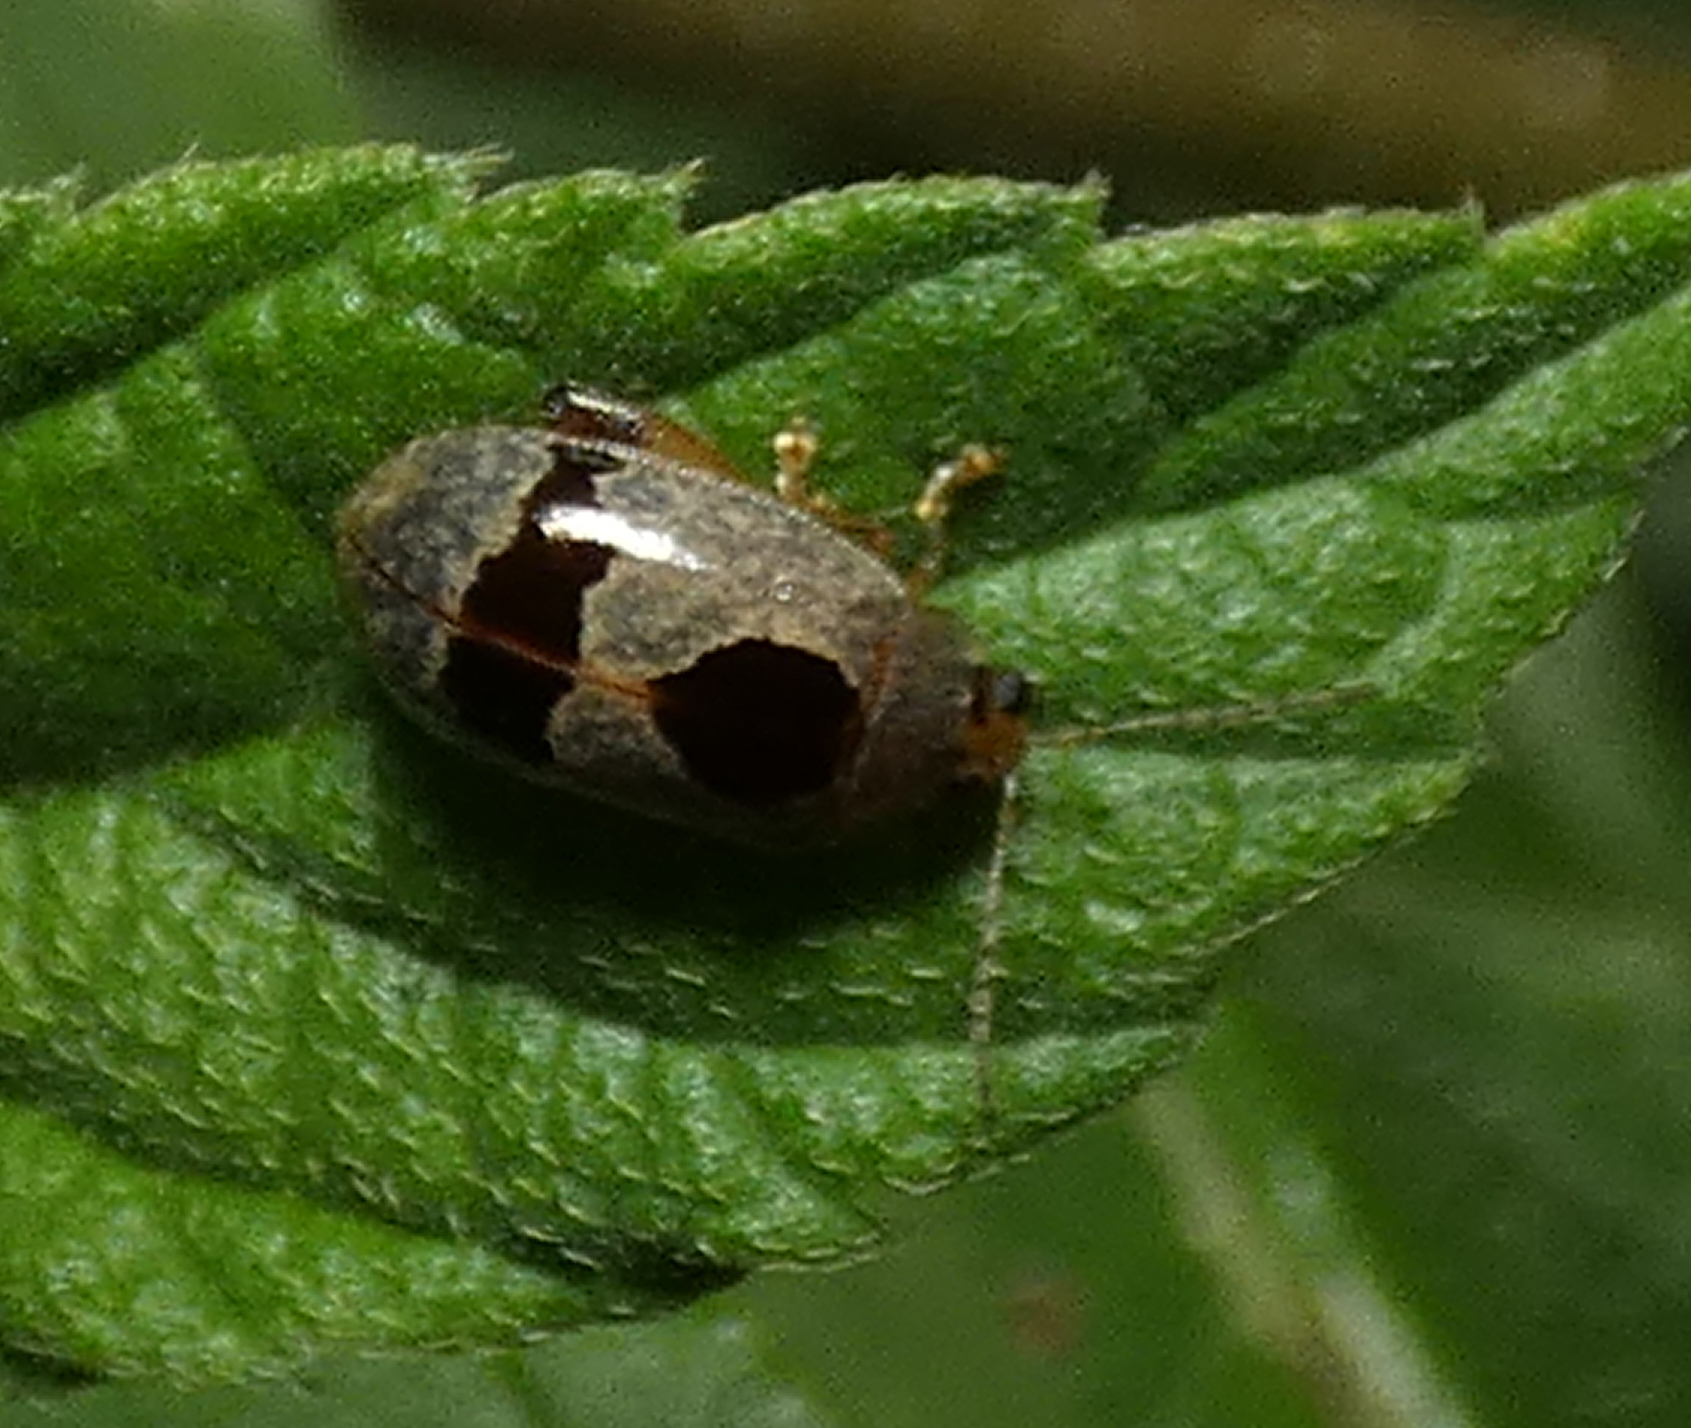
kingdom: Animalia
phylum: Arthropoda
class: Insecta
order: Coleoptera
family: Chrysomelidae
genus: Alagoasa
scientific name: Alagoasa
